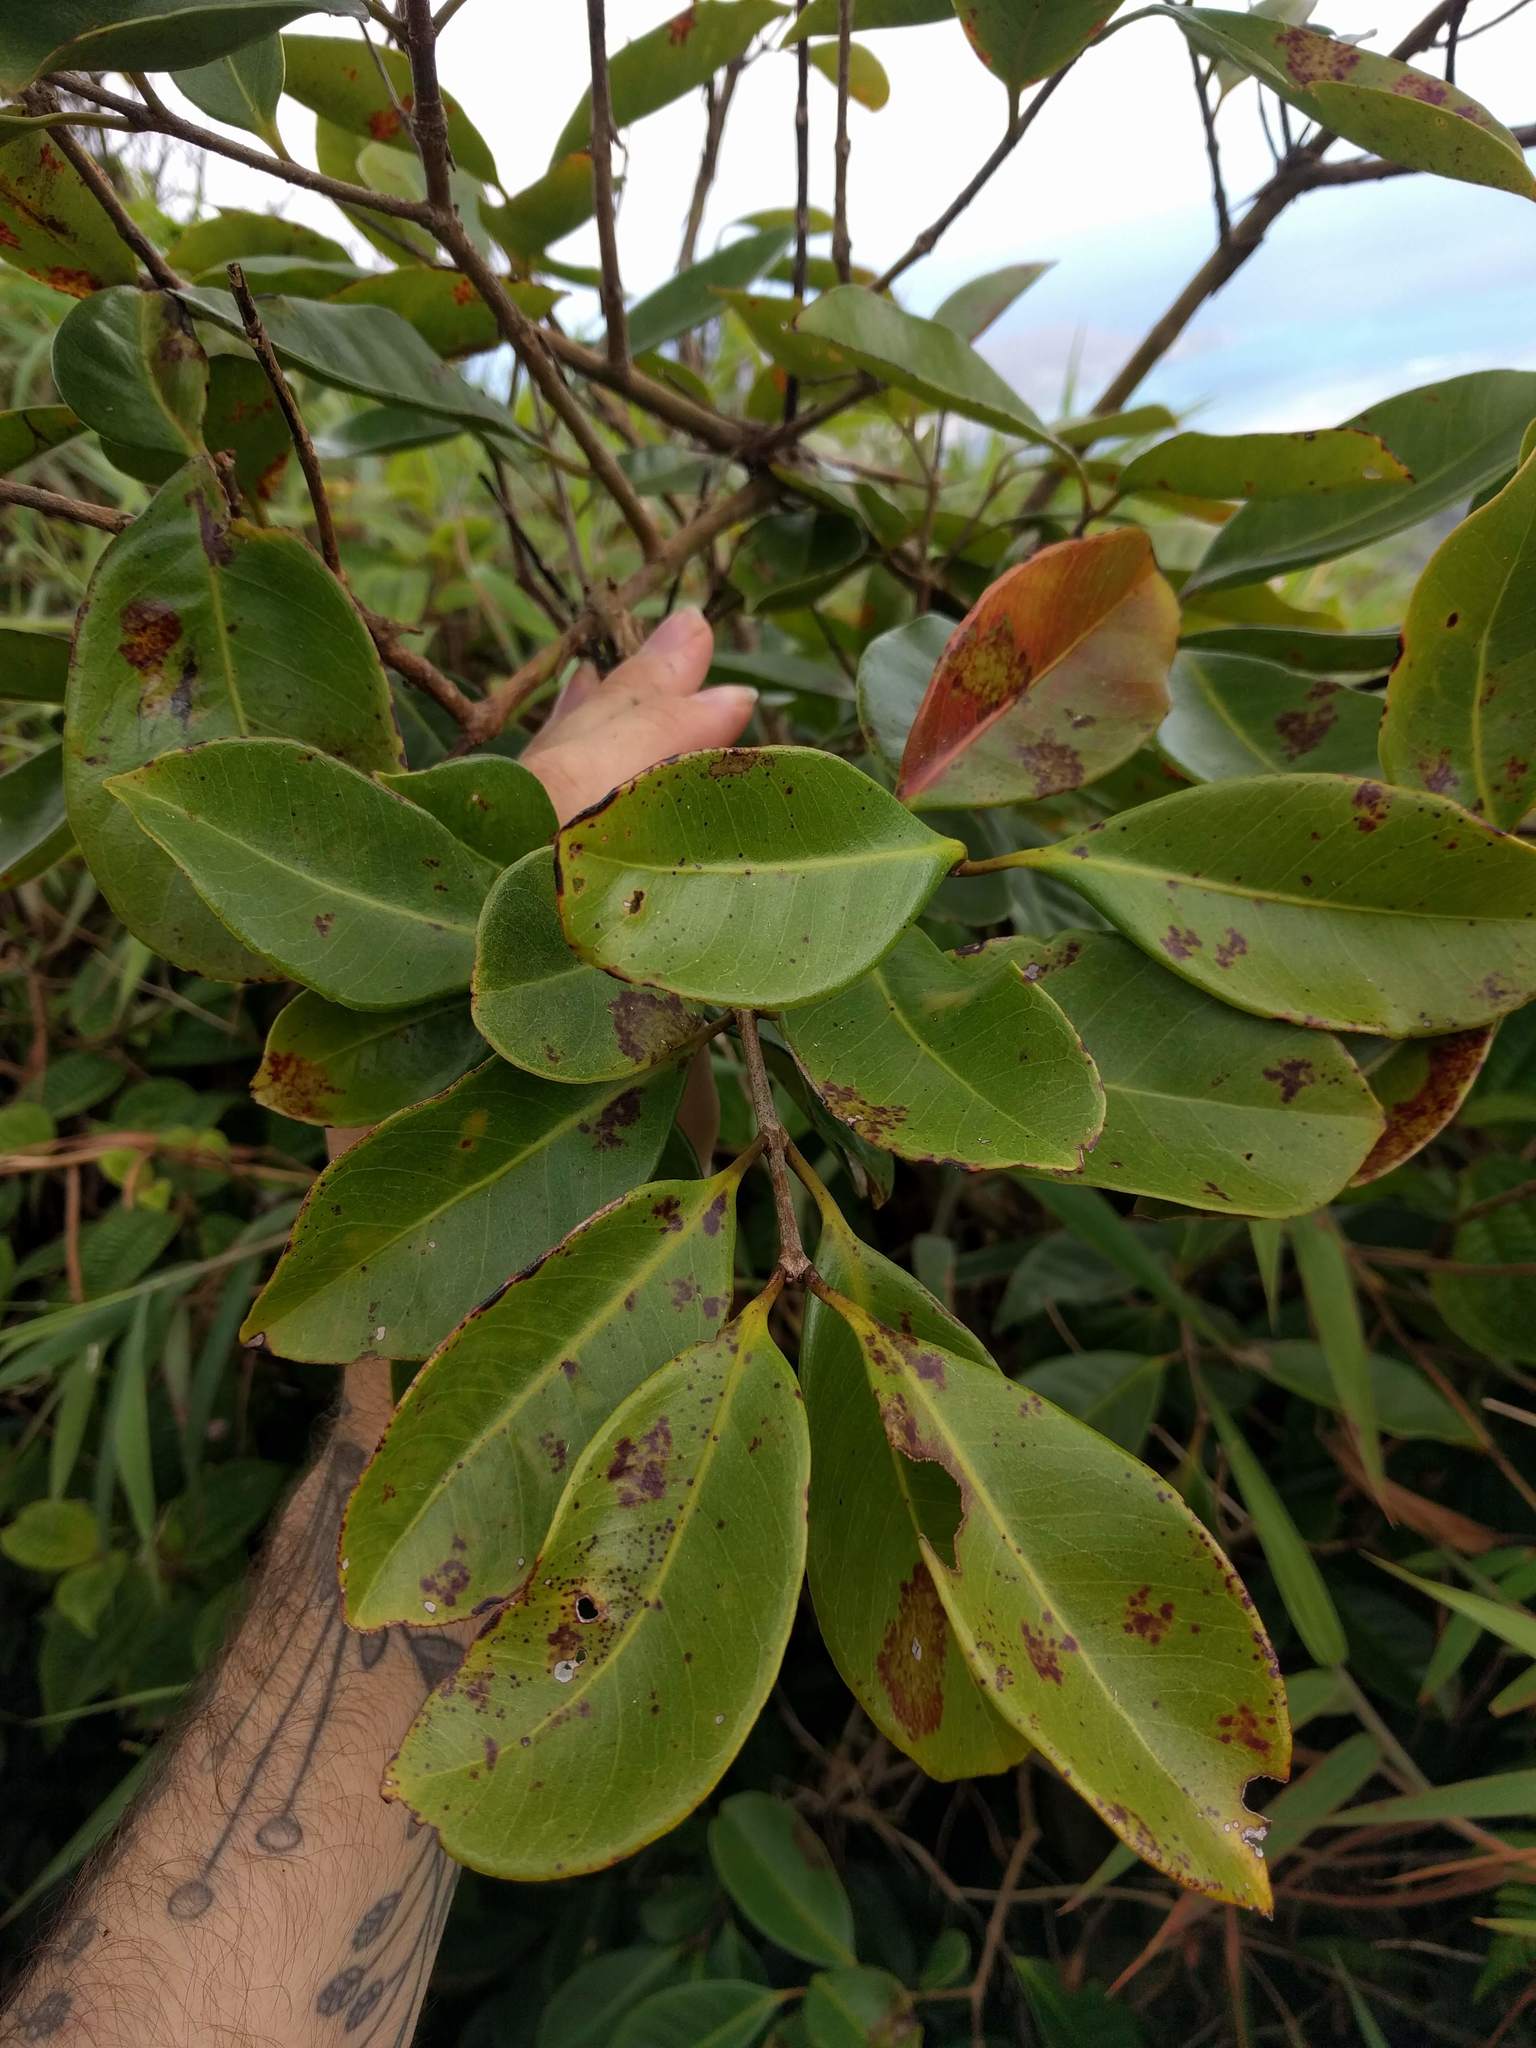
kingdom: Plantae
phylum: Tracheophyta
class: Magnoliopsida
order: Myrtales
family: Myrtaceae
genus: Psidium
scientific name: Psidium cattleianum
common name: Strawberry guava
